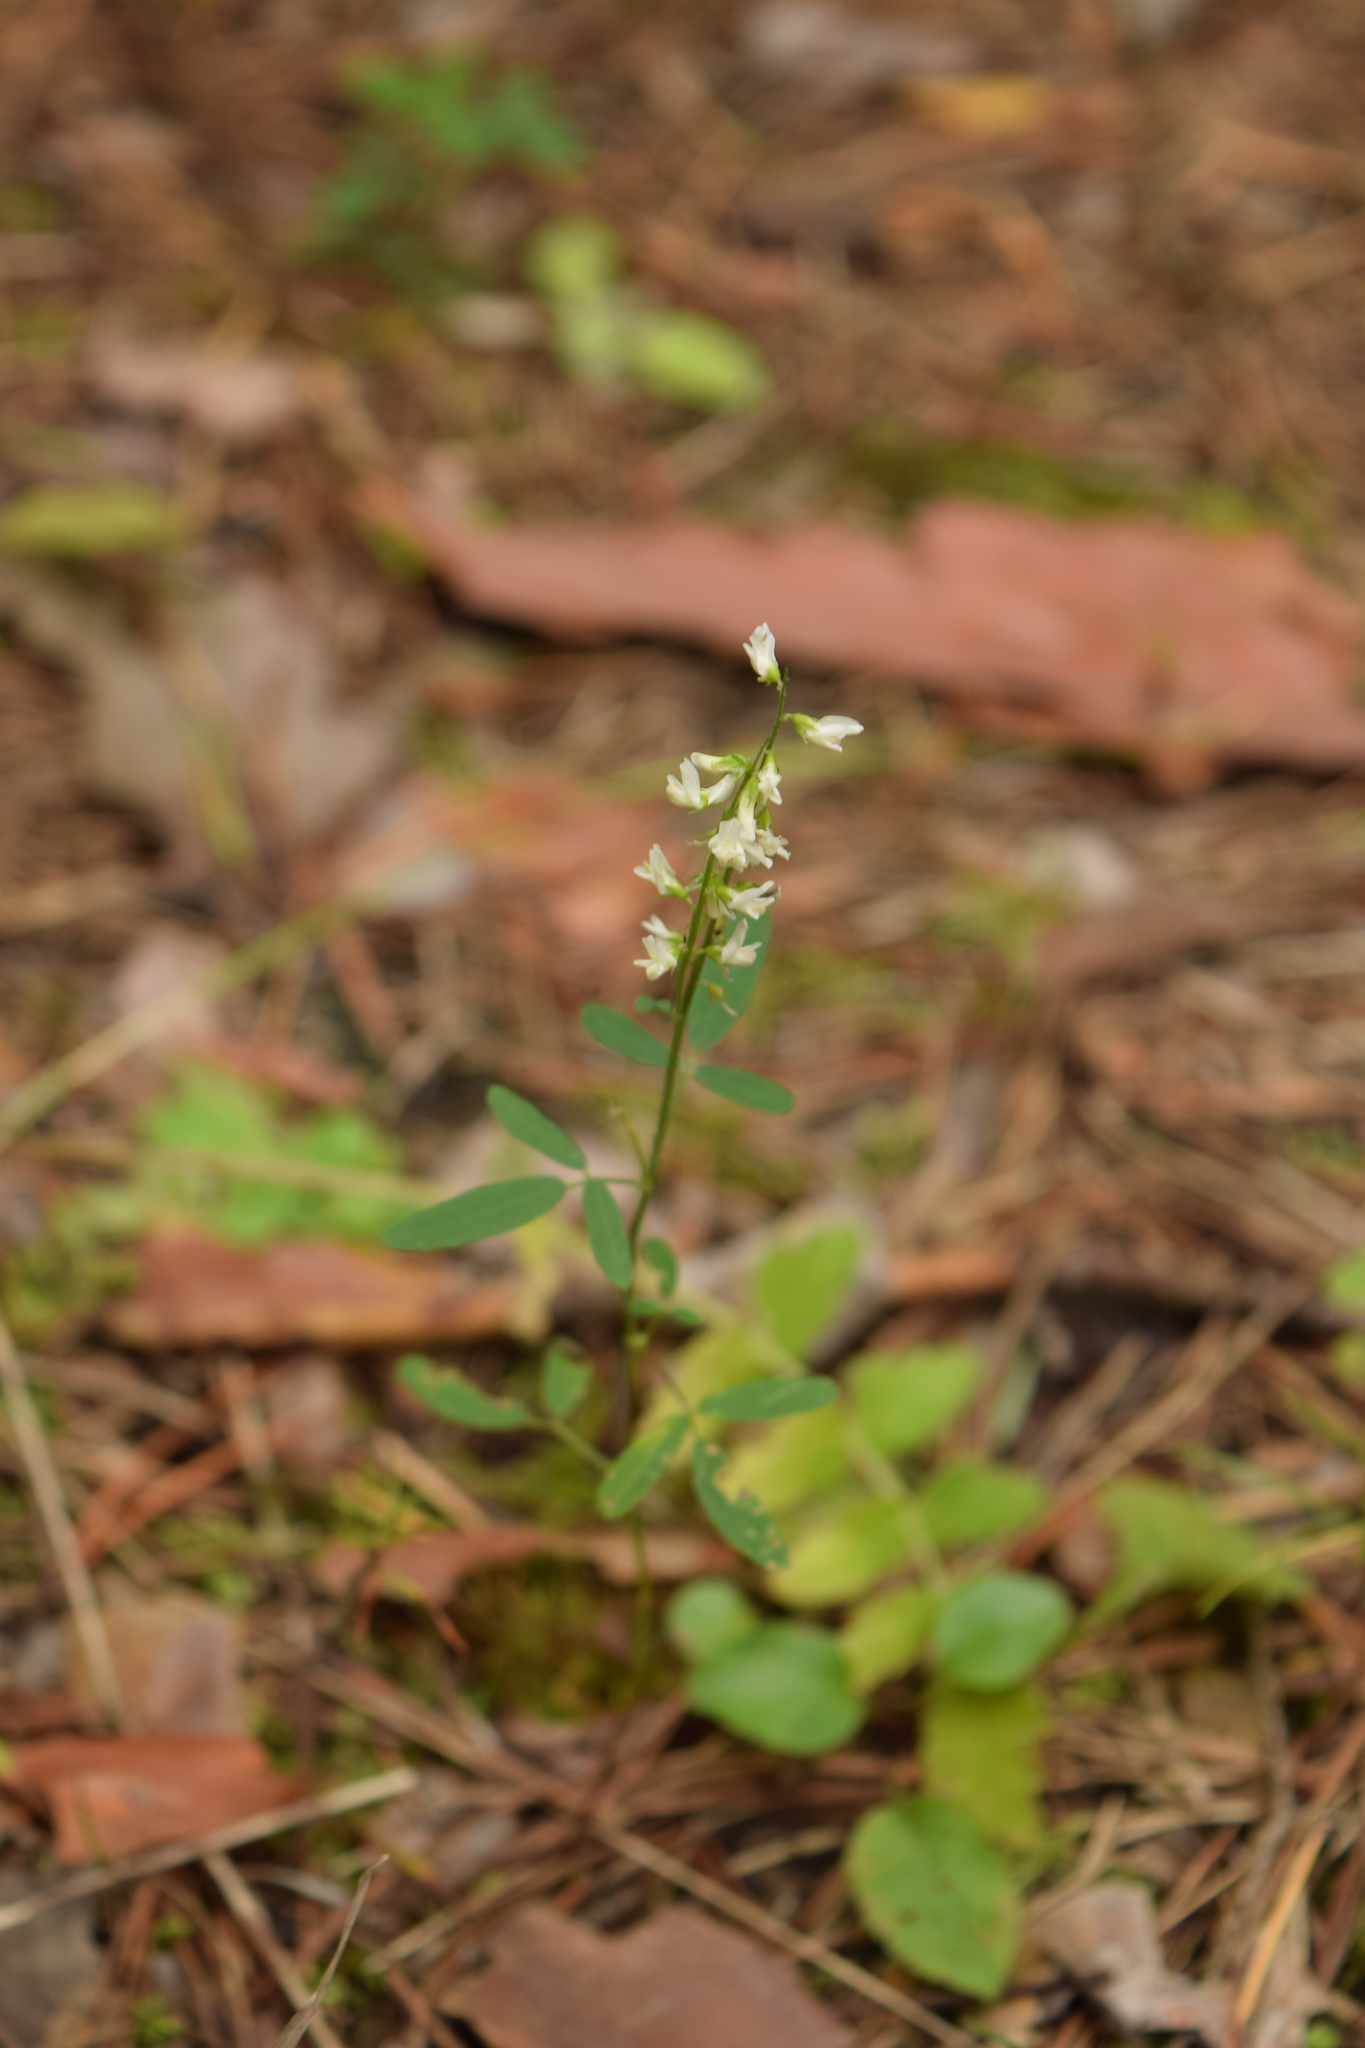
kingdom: Plantae
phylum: Tracheophyta
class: Magnoliopsida
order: Fabales
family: Fabaceae
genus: Melilotus
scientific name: Melilotus albus
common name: White melilot
